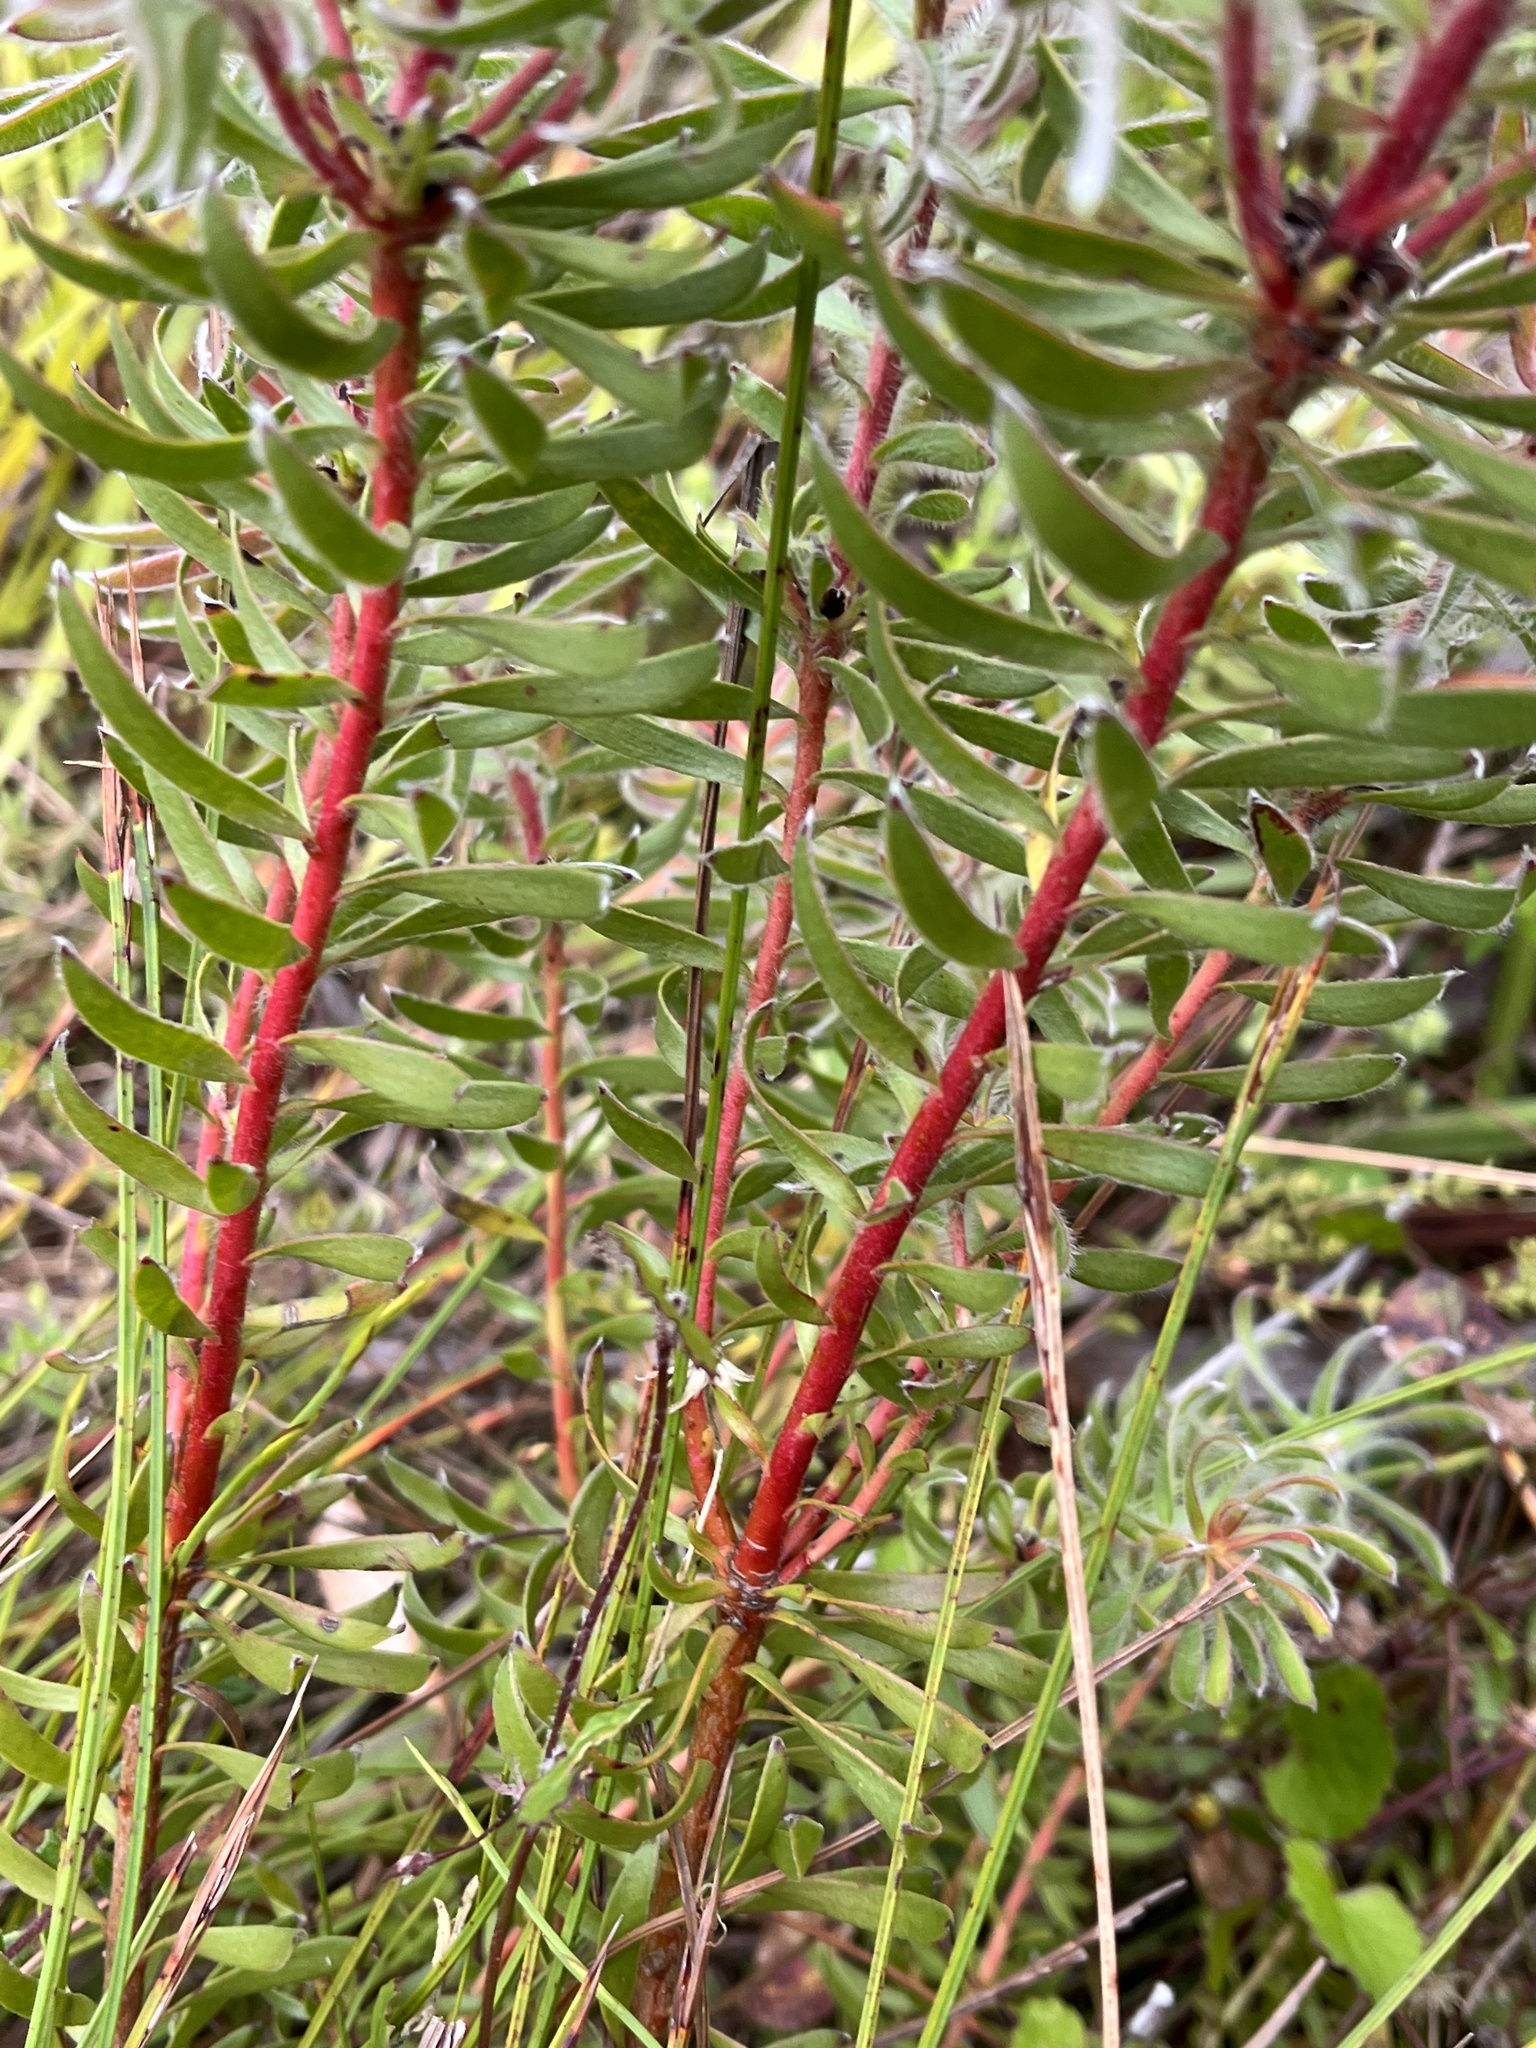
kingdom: Plantae
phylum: Tracheophyta
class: Magnoliopsida
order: Proteales
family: Proteaceae
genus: Leucadendron
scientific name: Leucadendron spissifolium
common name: Spear-leaf conebush
